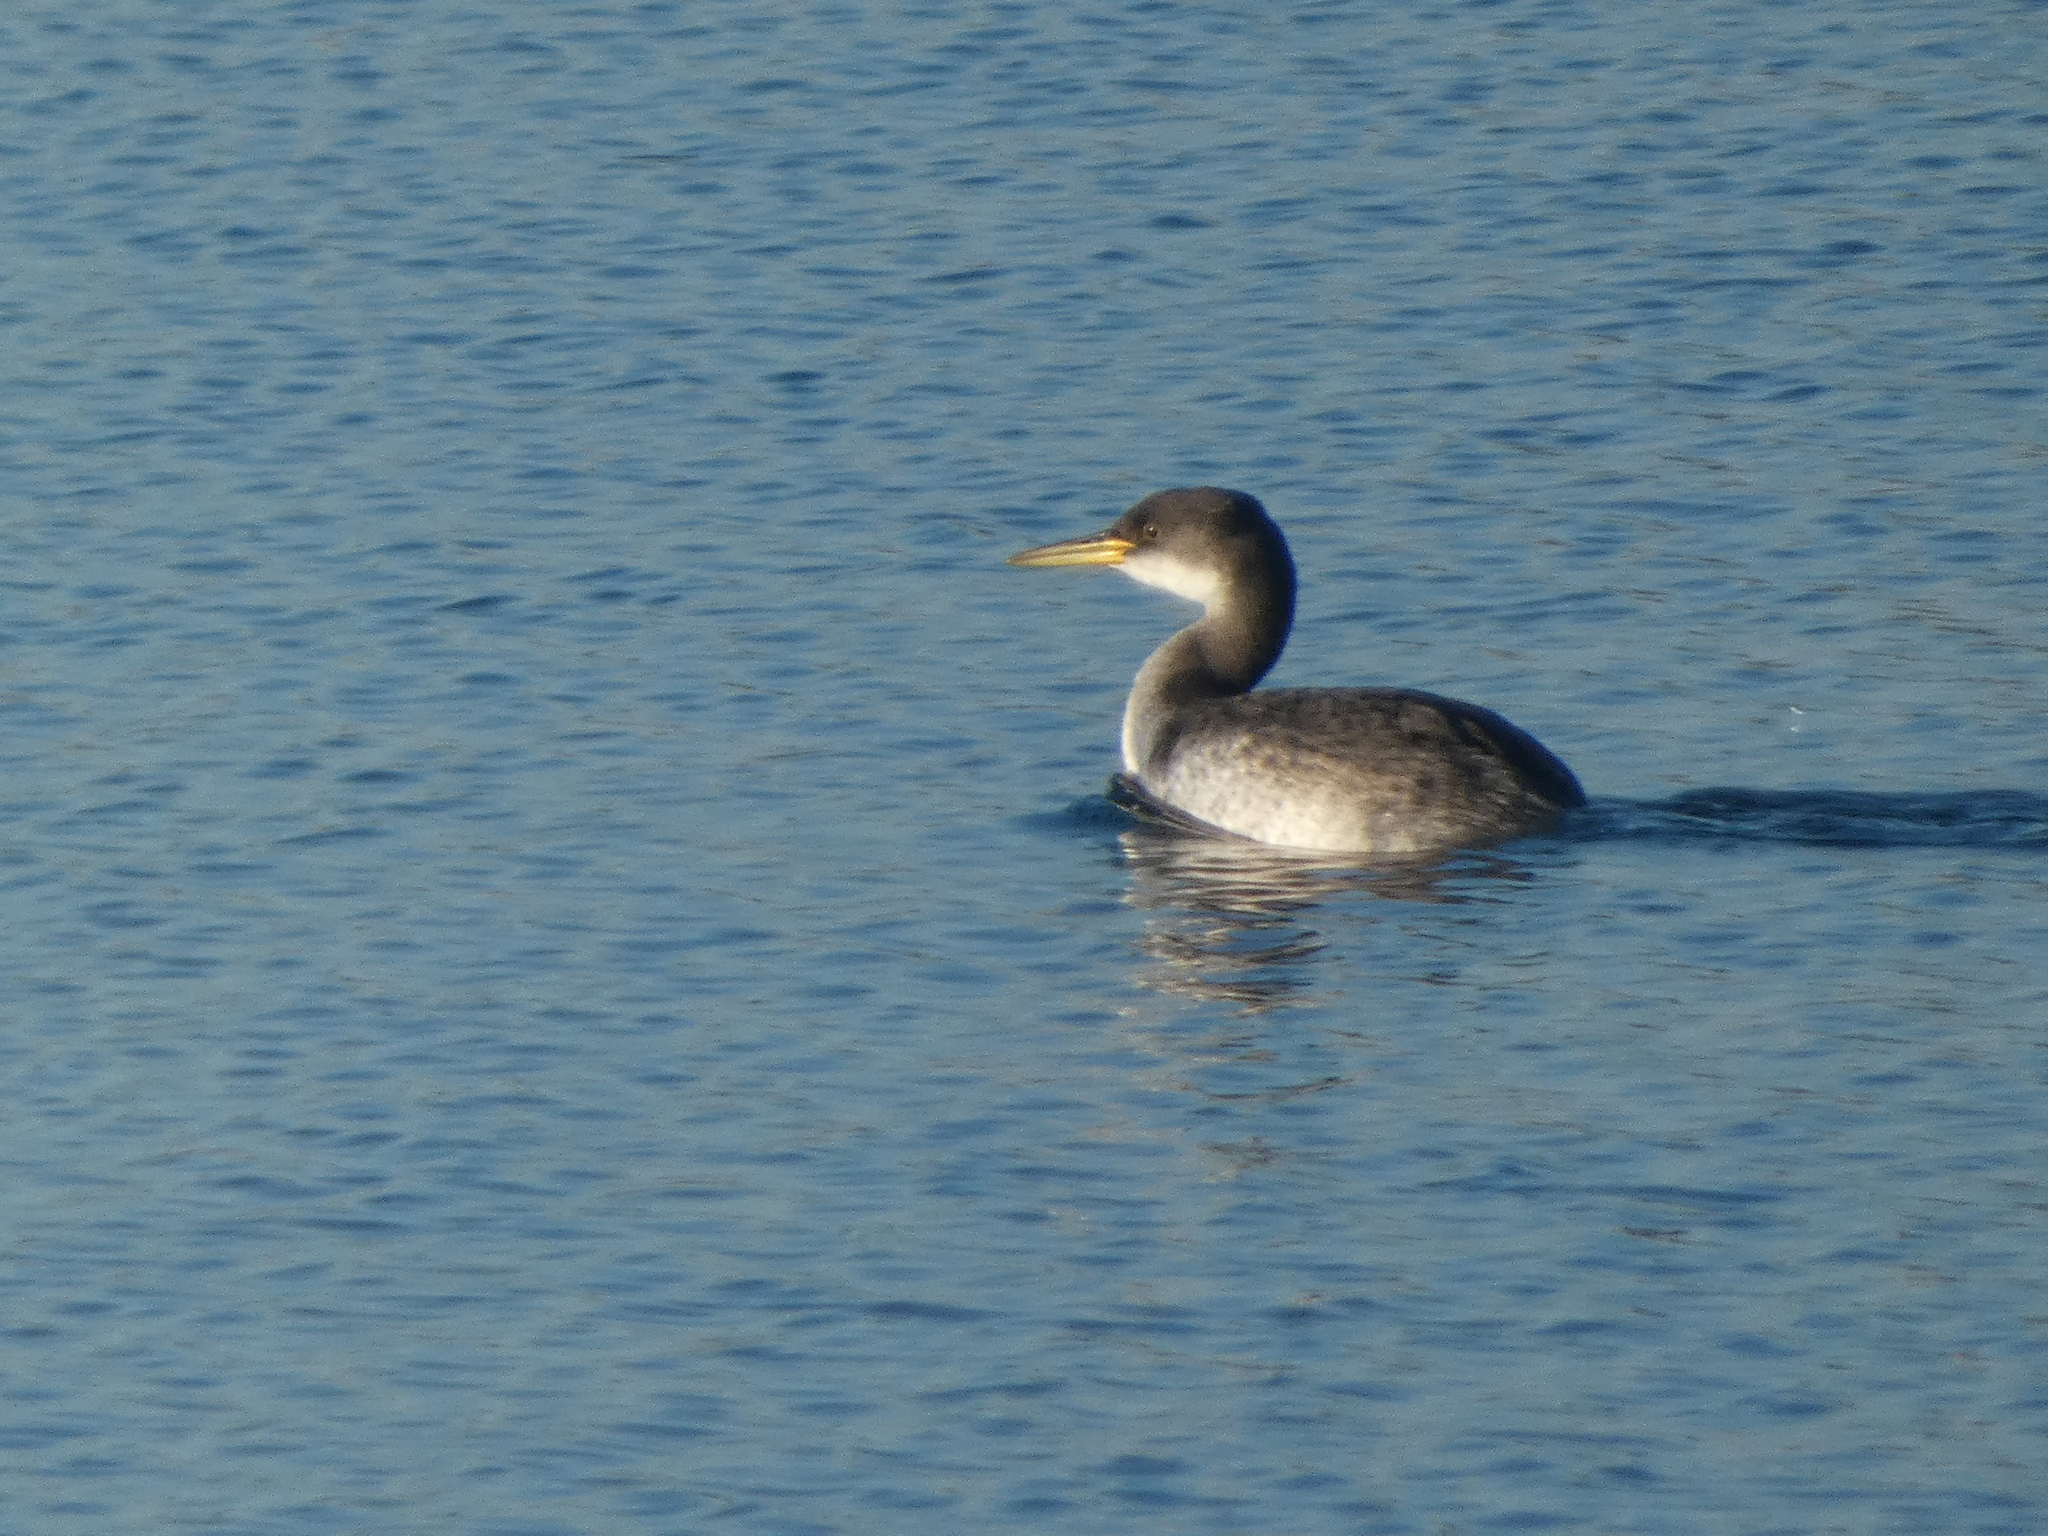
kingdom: Animalia
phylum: Chordata
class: Aves
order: Podicipediformes
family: Podicipedidae
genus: Podiceps
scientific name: Podiceps grisegena
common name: Red-necked grebe
